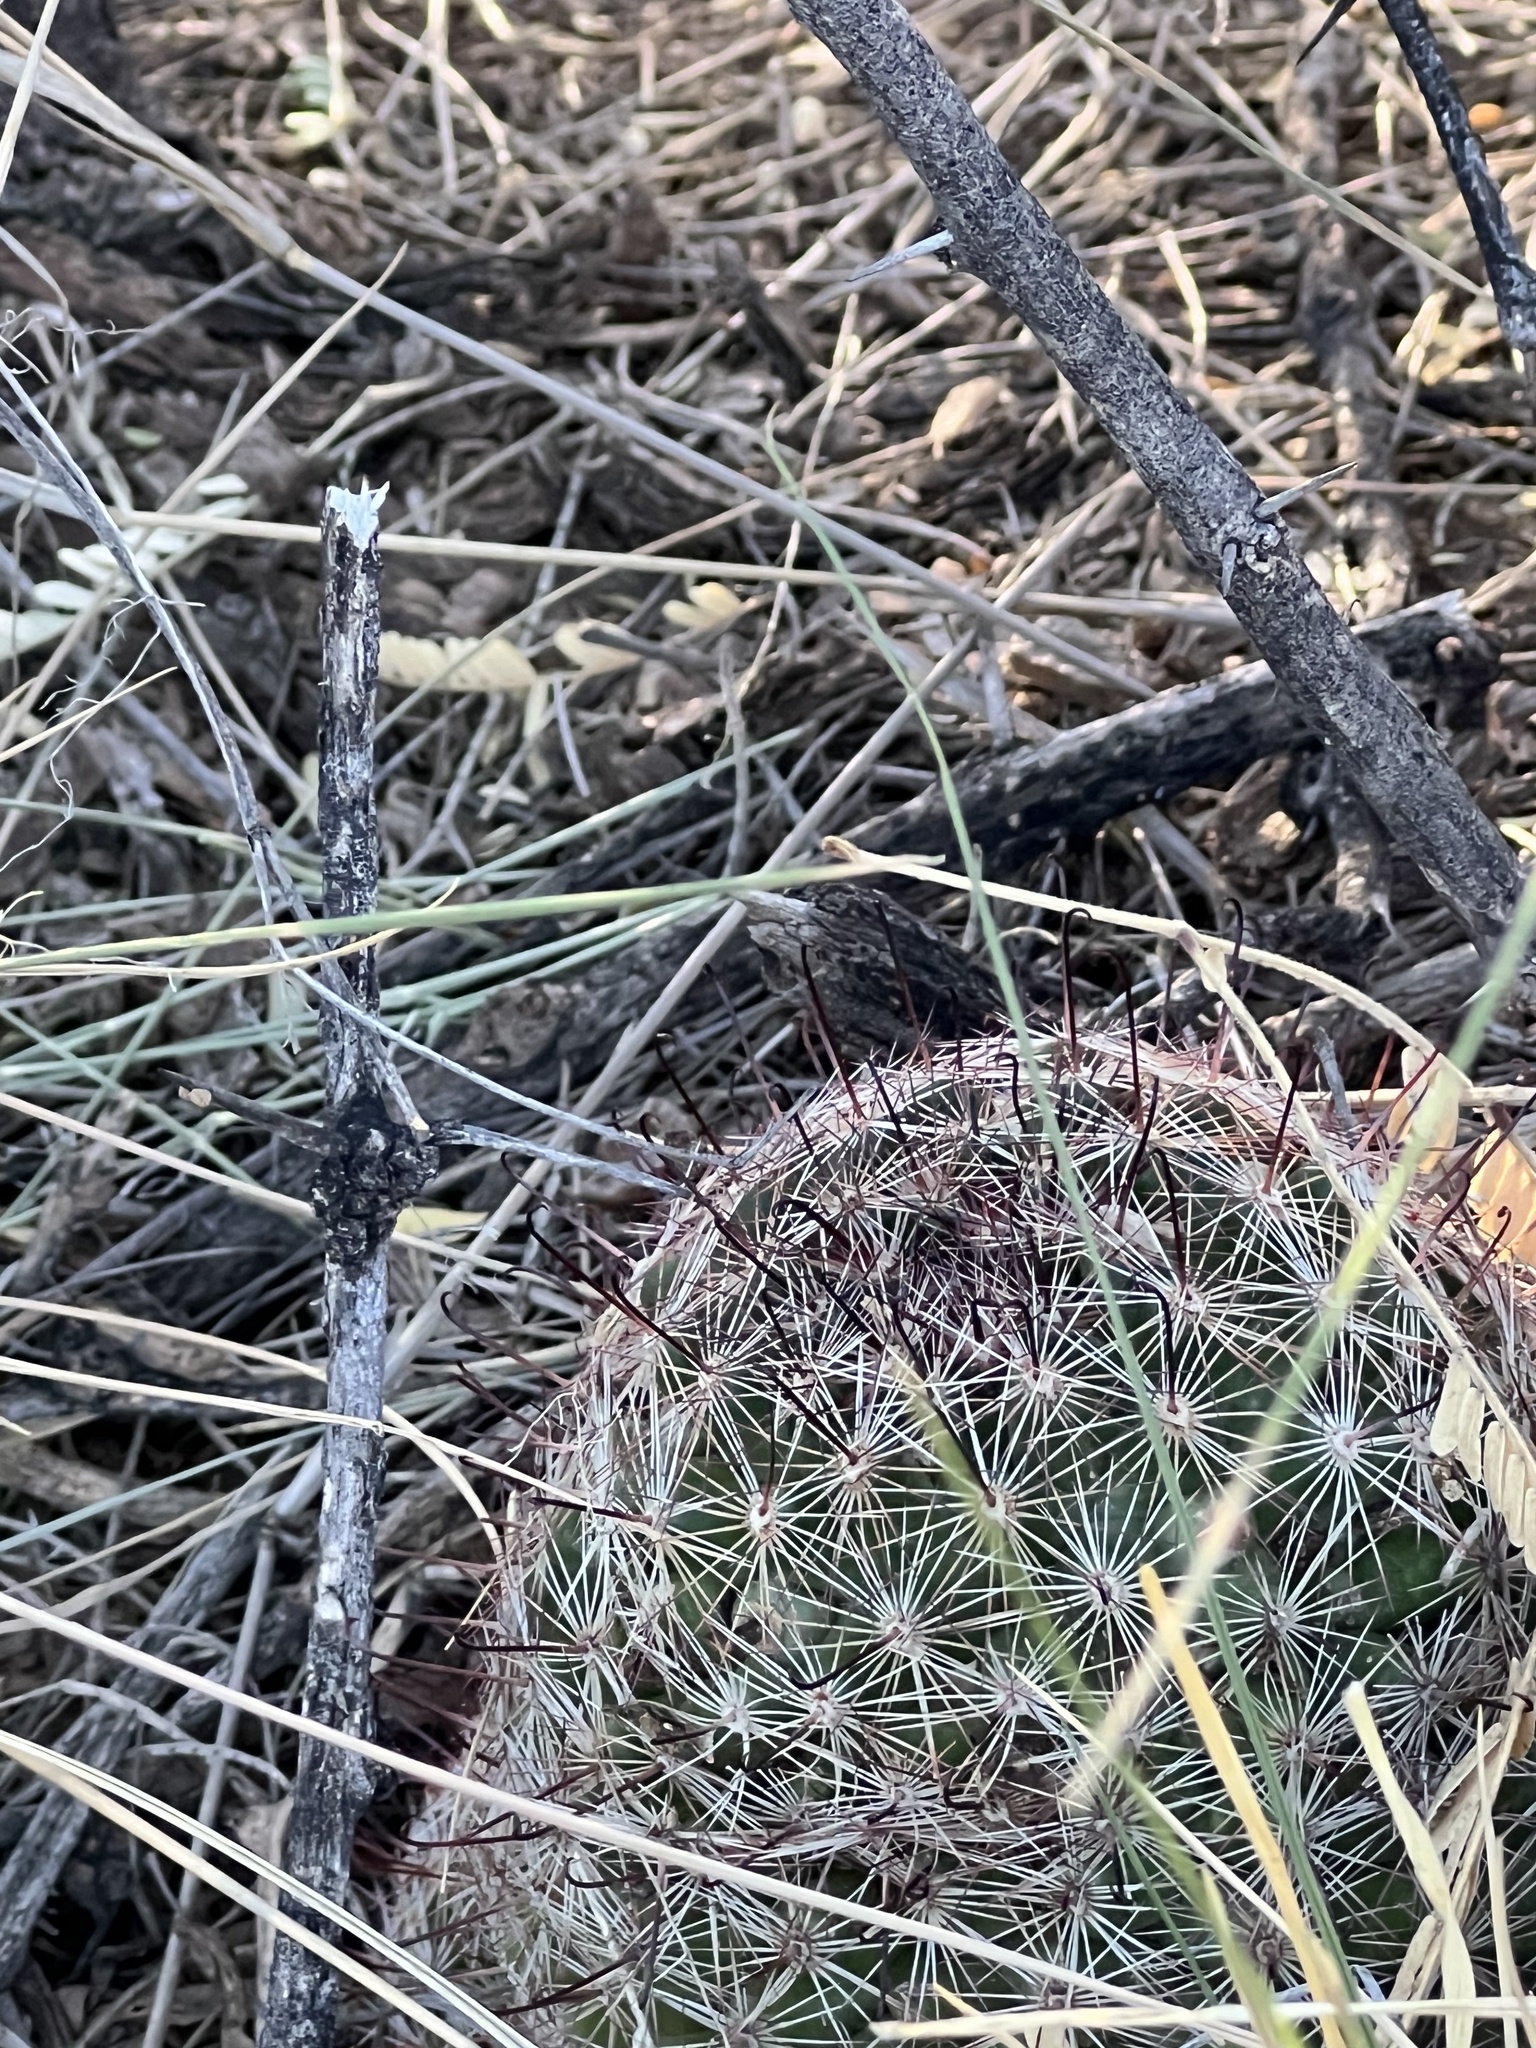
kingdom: Plantae
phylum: Tracheophyta
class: Magnoliopsida
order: Caryophyllales
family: Cactaceae
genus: Cochemiea
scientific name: Cochemiea wrightii
